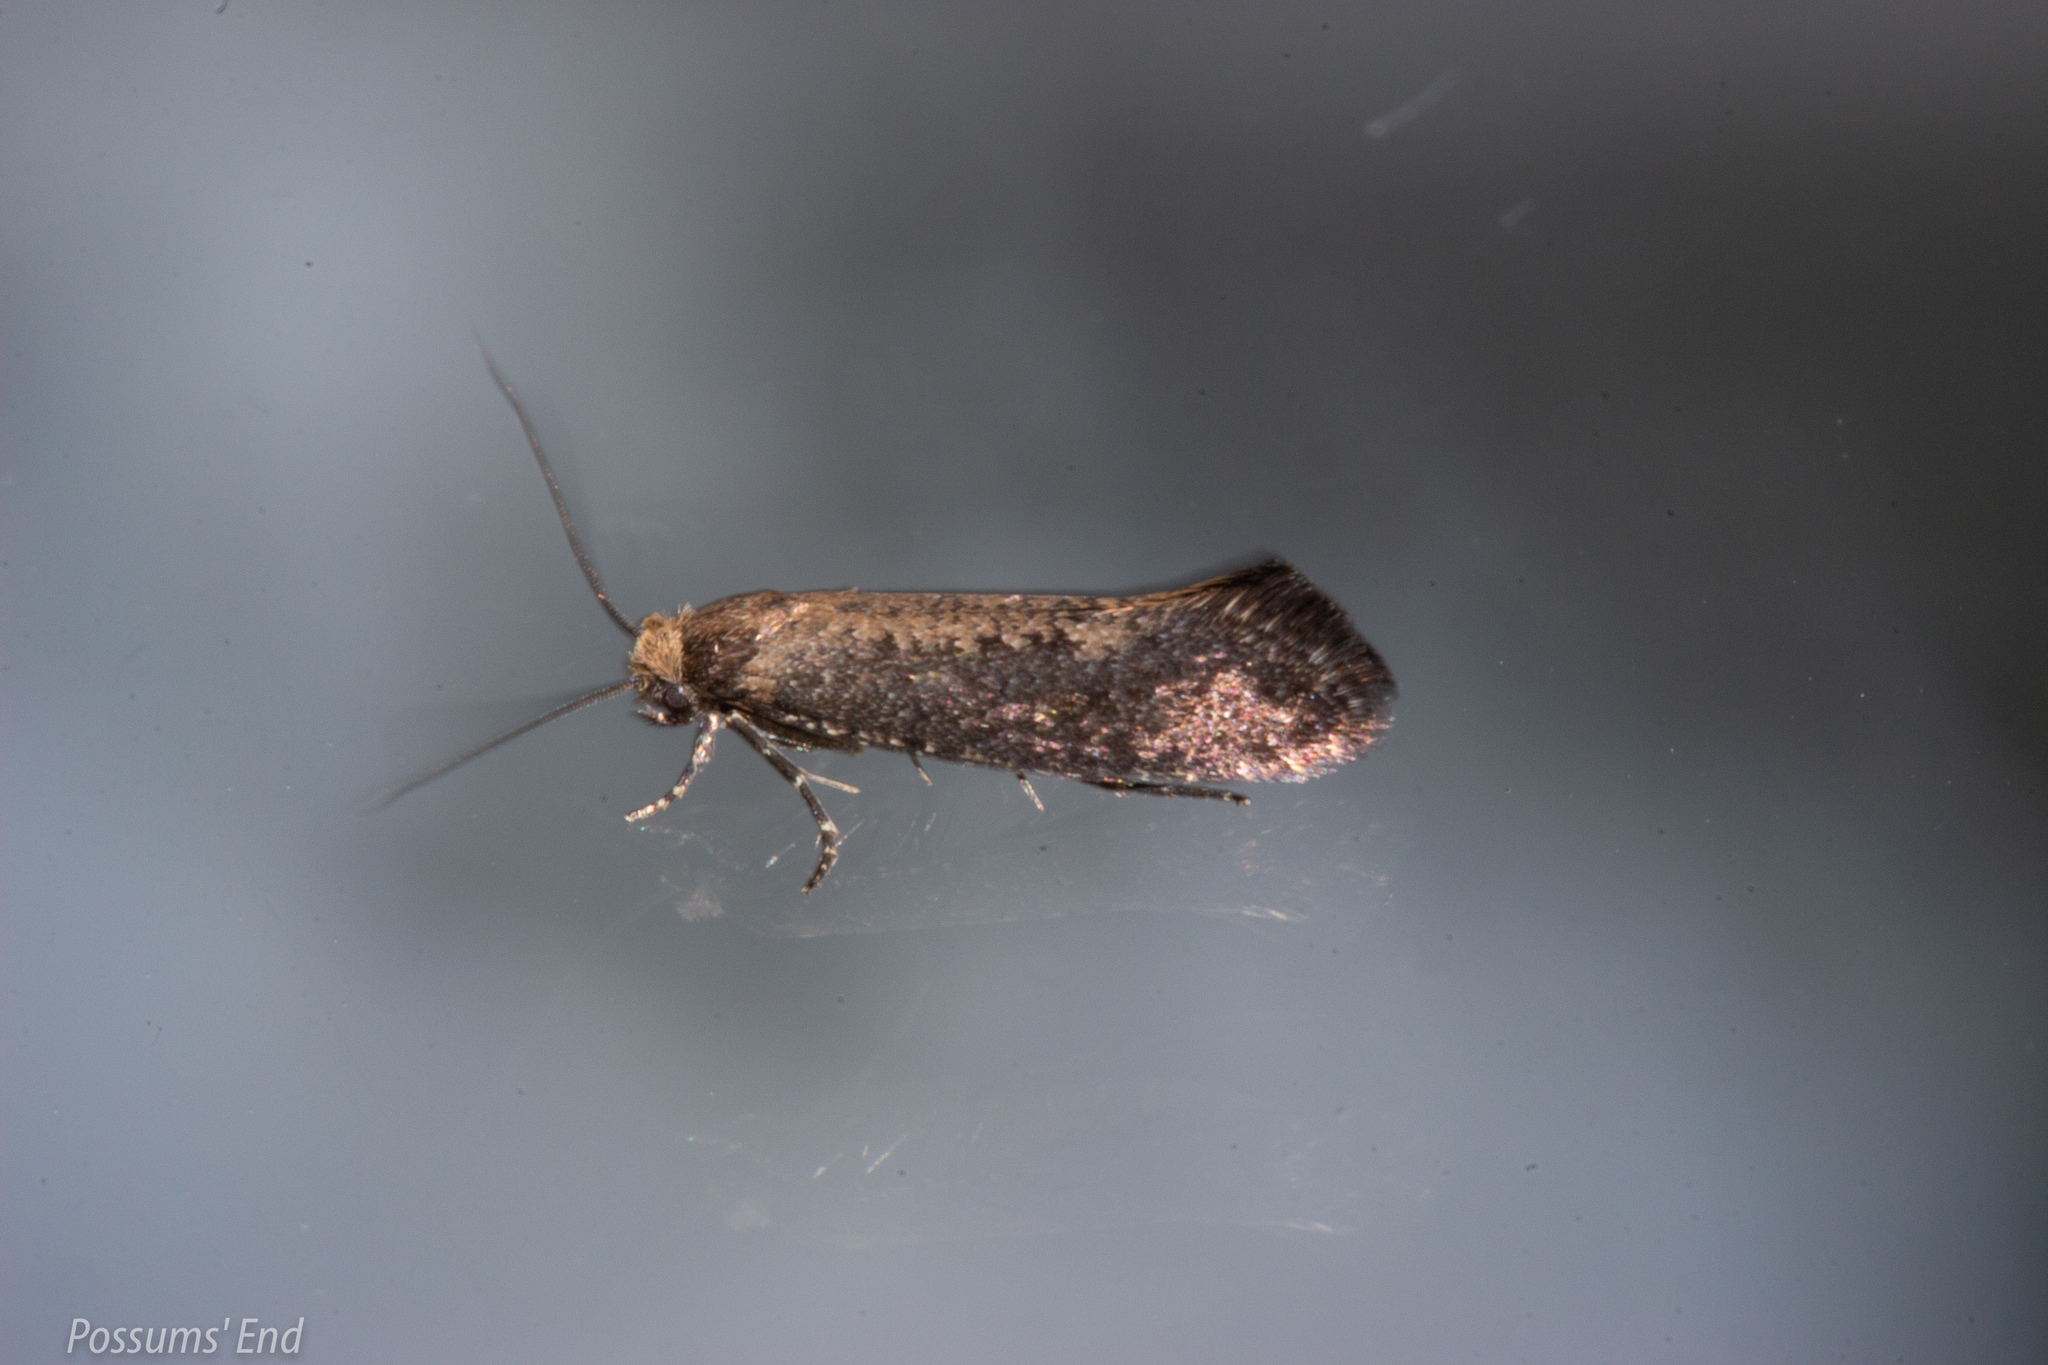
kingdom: Animalia
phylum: Arthropoda
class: Insecta
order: Lepidoptera
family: Tineidae
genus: Monopis
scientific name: Monopis ornithias
